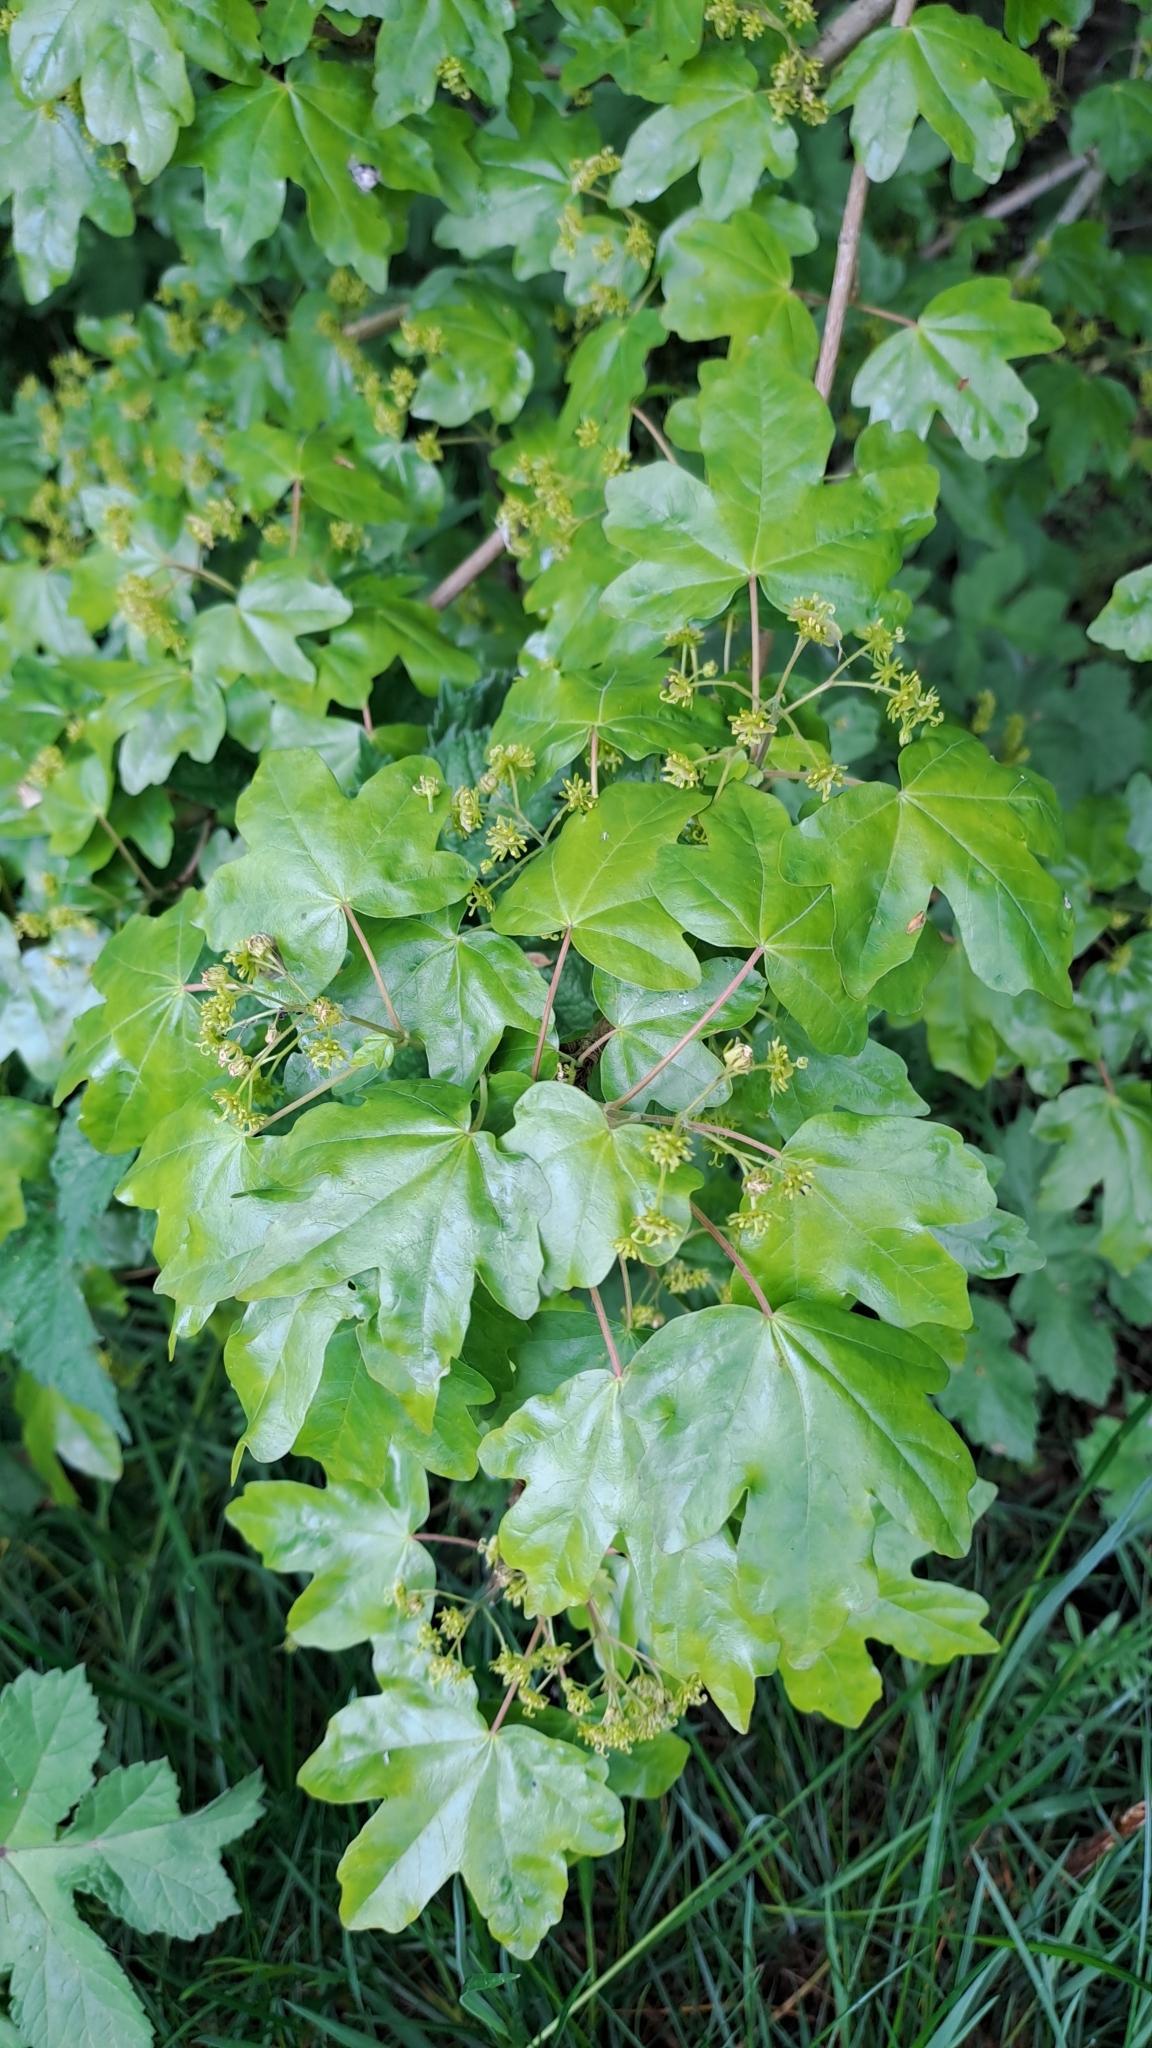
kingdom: Plantae
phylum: Tracheophyta
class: Magnoliopsida
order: Sapindales
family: Sapindaceae
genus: Acer
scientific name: Acer campestre
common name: Field maple
